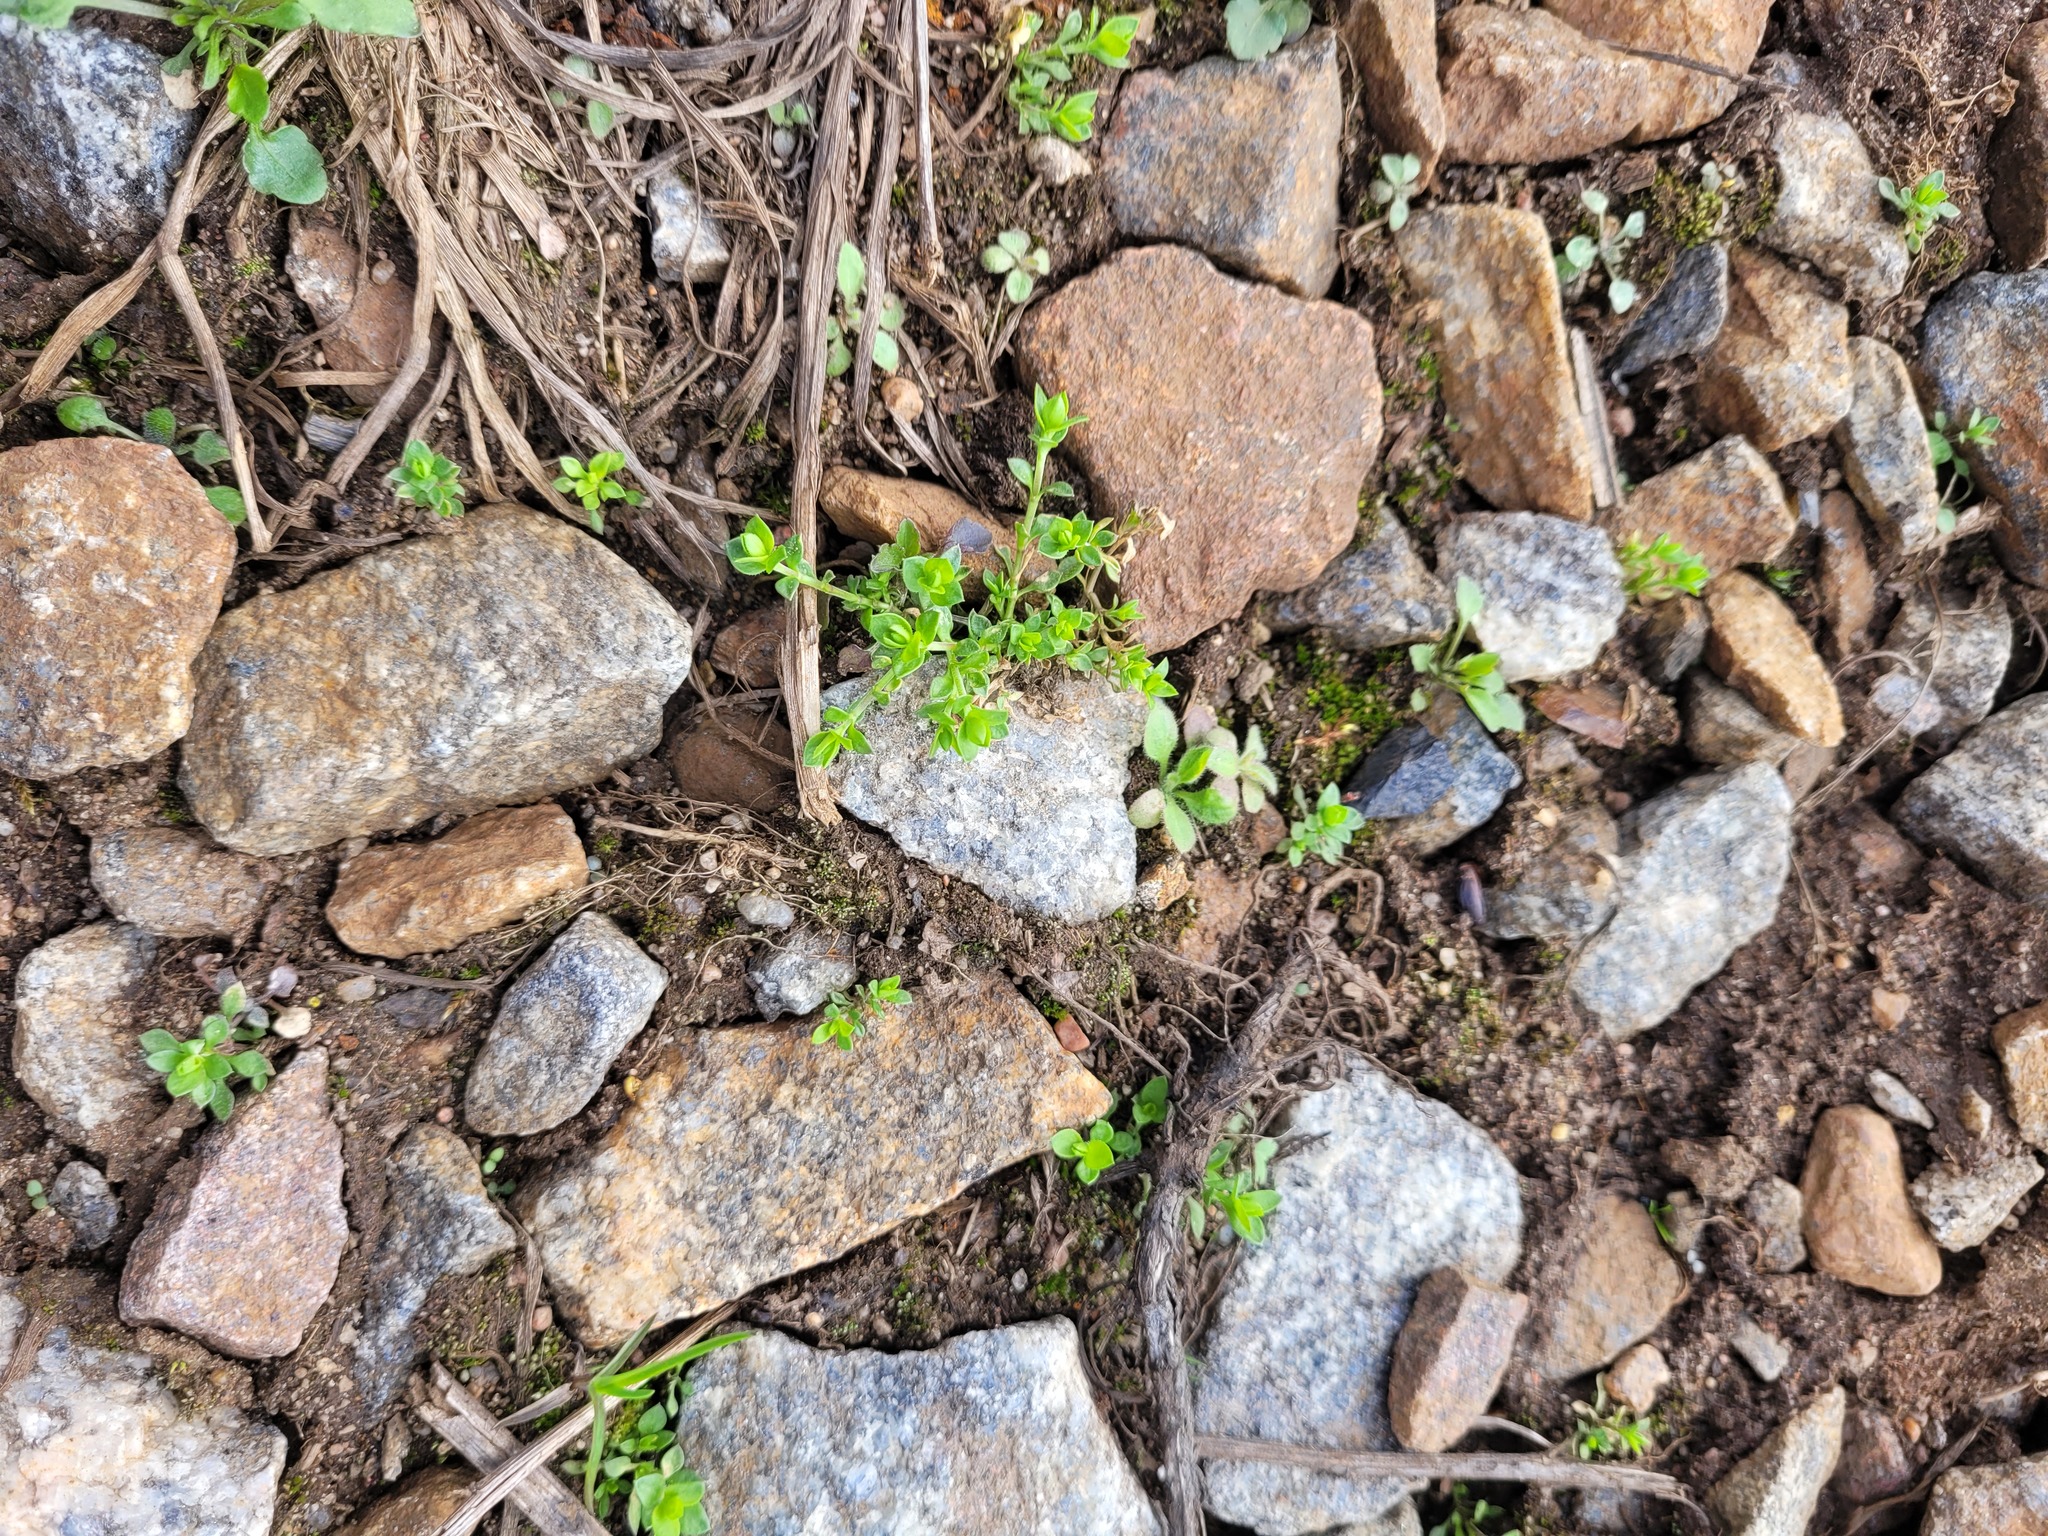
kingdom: Plantae
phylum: Tracheophyta
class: Magnoliopsida
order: Caryophyllales
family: Caryophyllaceae
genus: Arenaria
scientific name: Arenaria serpyllifolia
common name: Thyme-leaved sandwort
